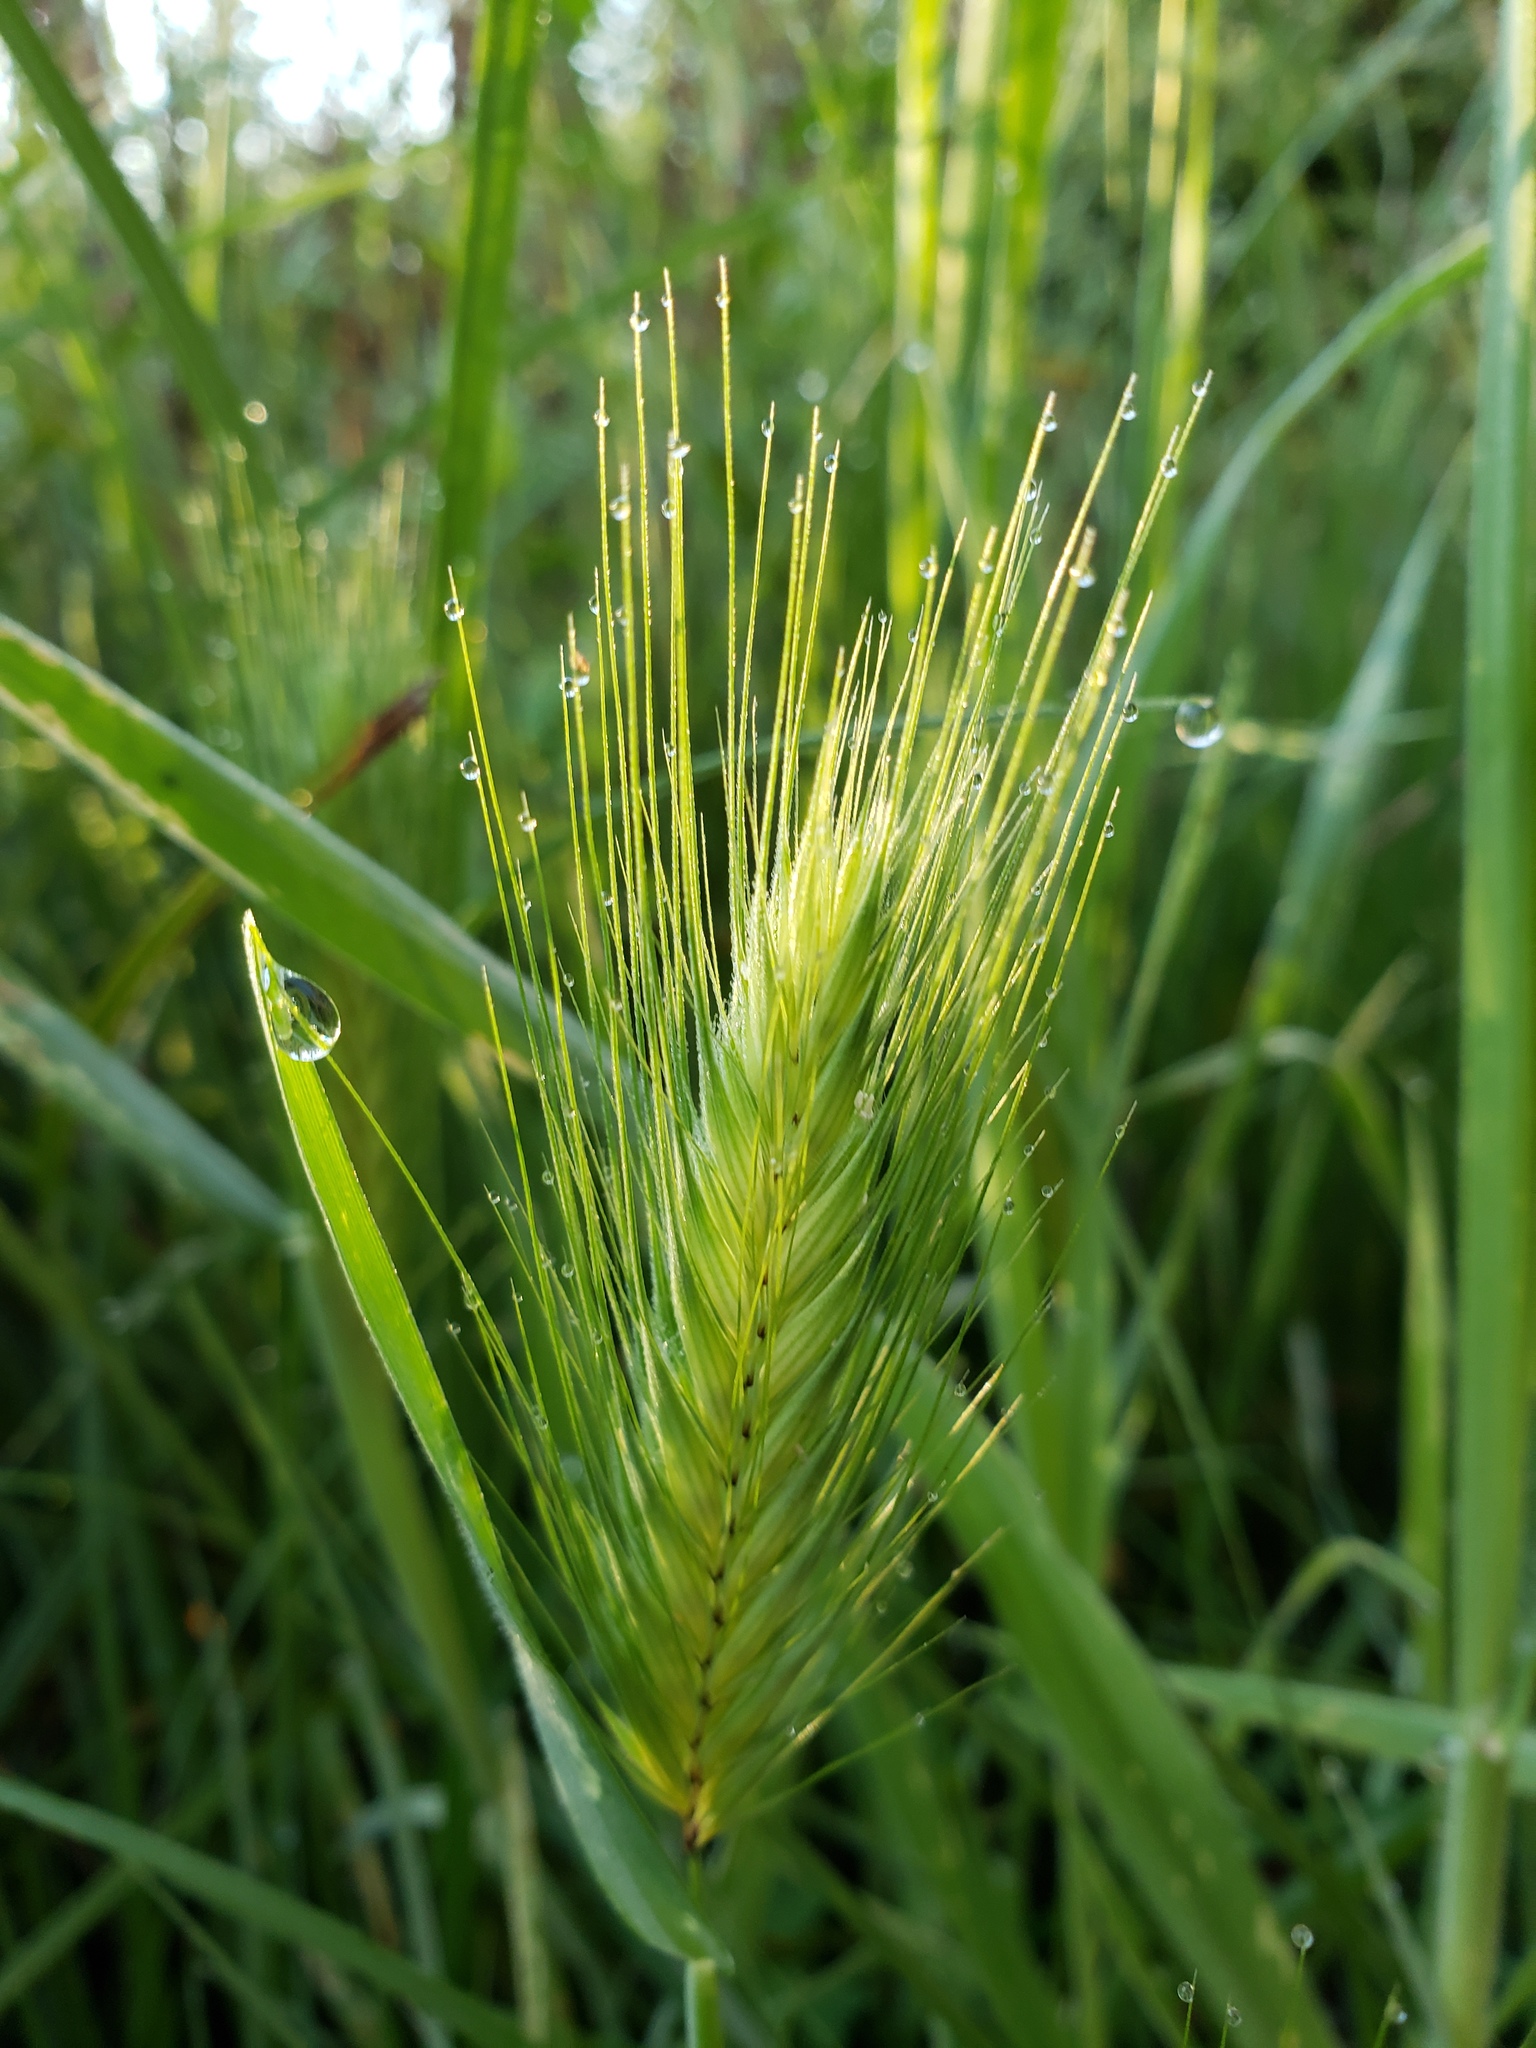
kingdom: Plantae
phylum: Tracheophyta
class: Liliopsida
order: Poales
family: Poaceae
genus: Hordeum
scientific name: Hordeum murinum
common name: Wall barley
